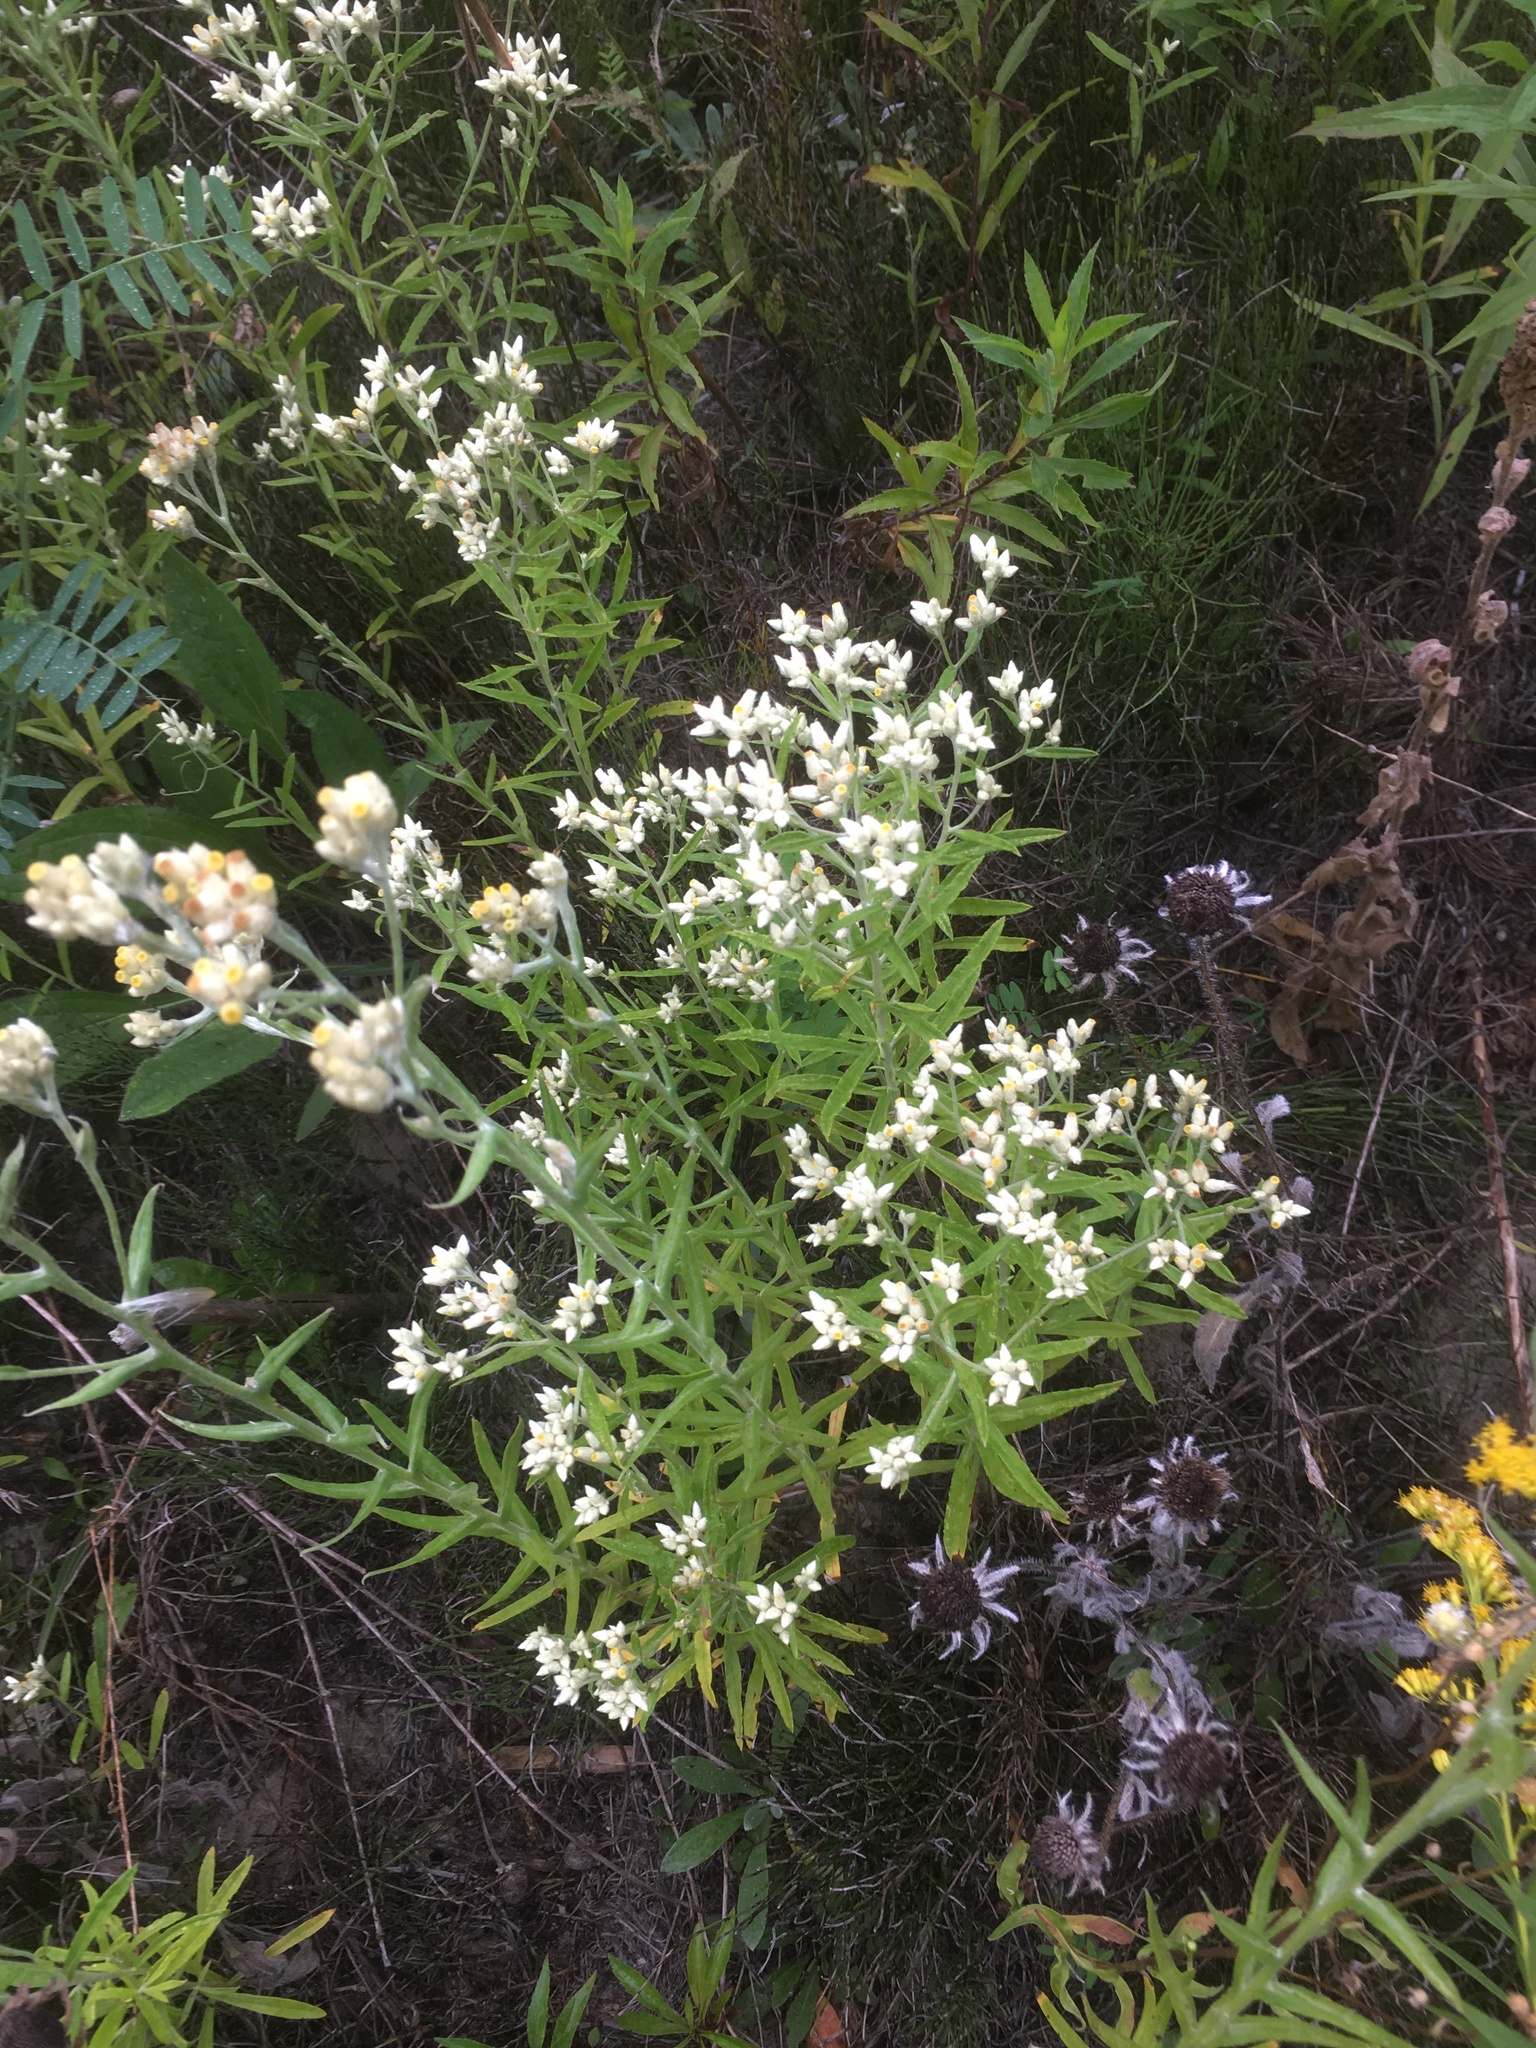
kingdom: Plantae
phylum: Tracheophyta
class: Magnoliopsida
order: Asterales
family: Asteraceae
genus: Pseudognaphalium
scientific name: Pseudognaphalium obtusifolium
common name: Eastern rabbit-tobacco
